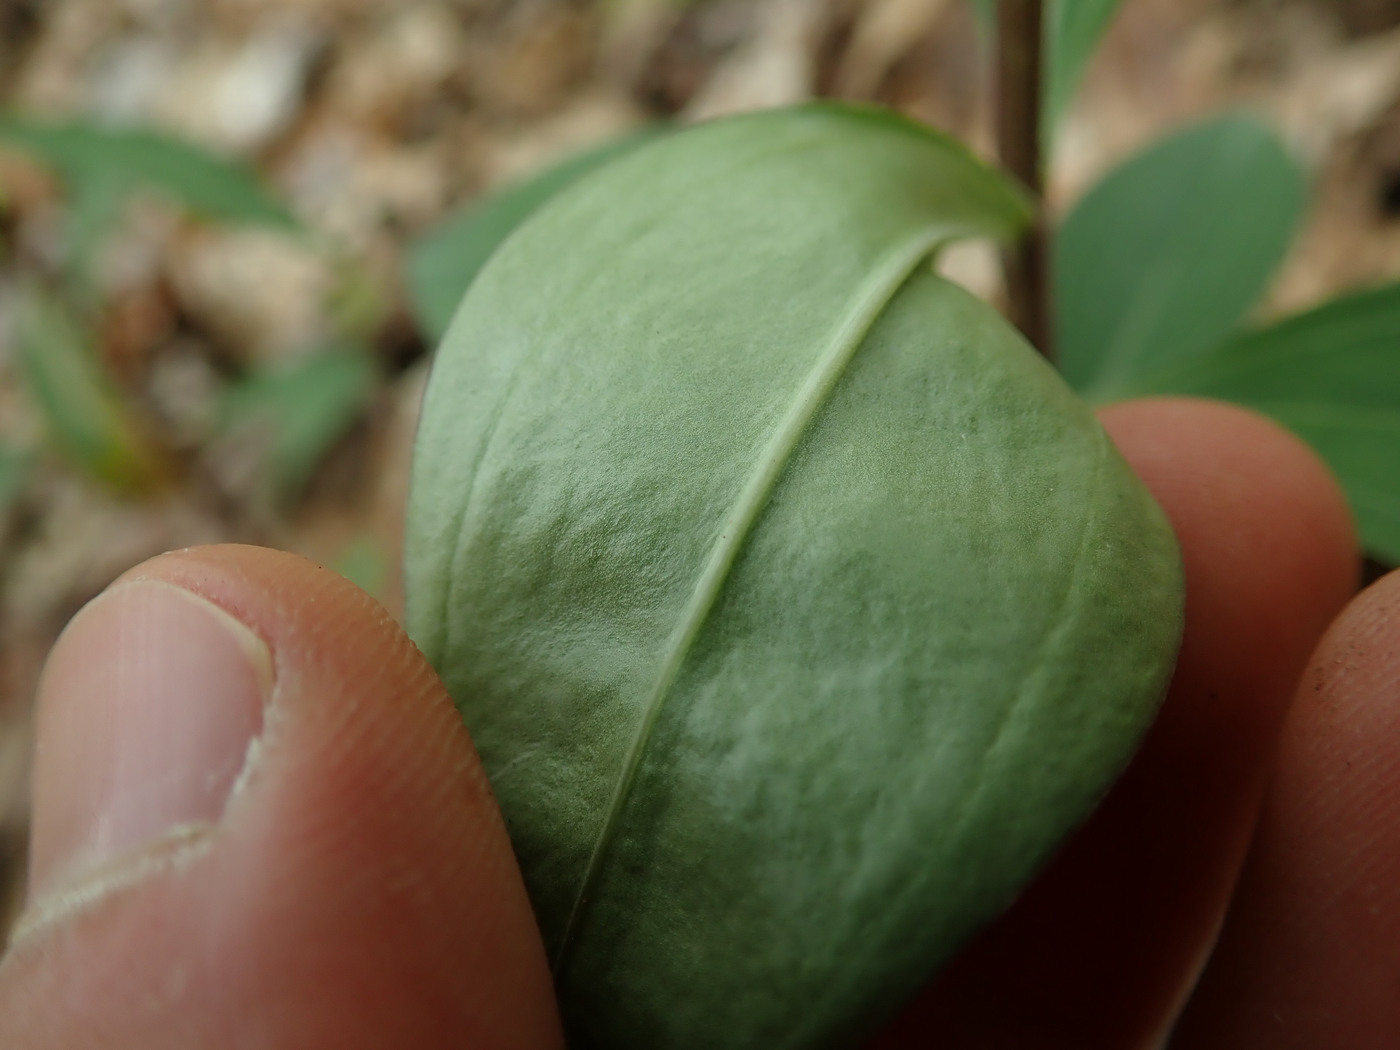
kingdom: Plantae
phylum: Tracheophyta
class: Magnoliopsida
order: Caryophyllales
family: Caryophyllaceae
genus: Saponaria
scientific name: Saponaria officinalis
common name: Soapwort
